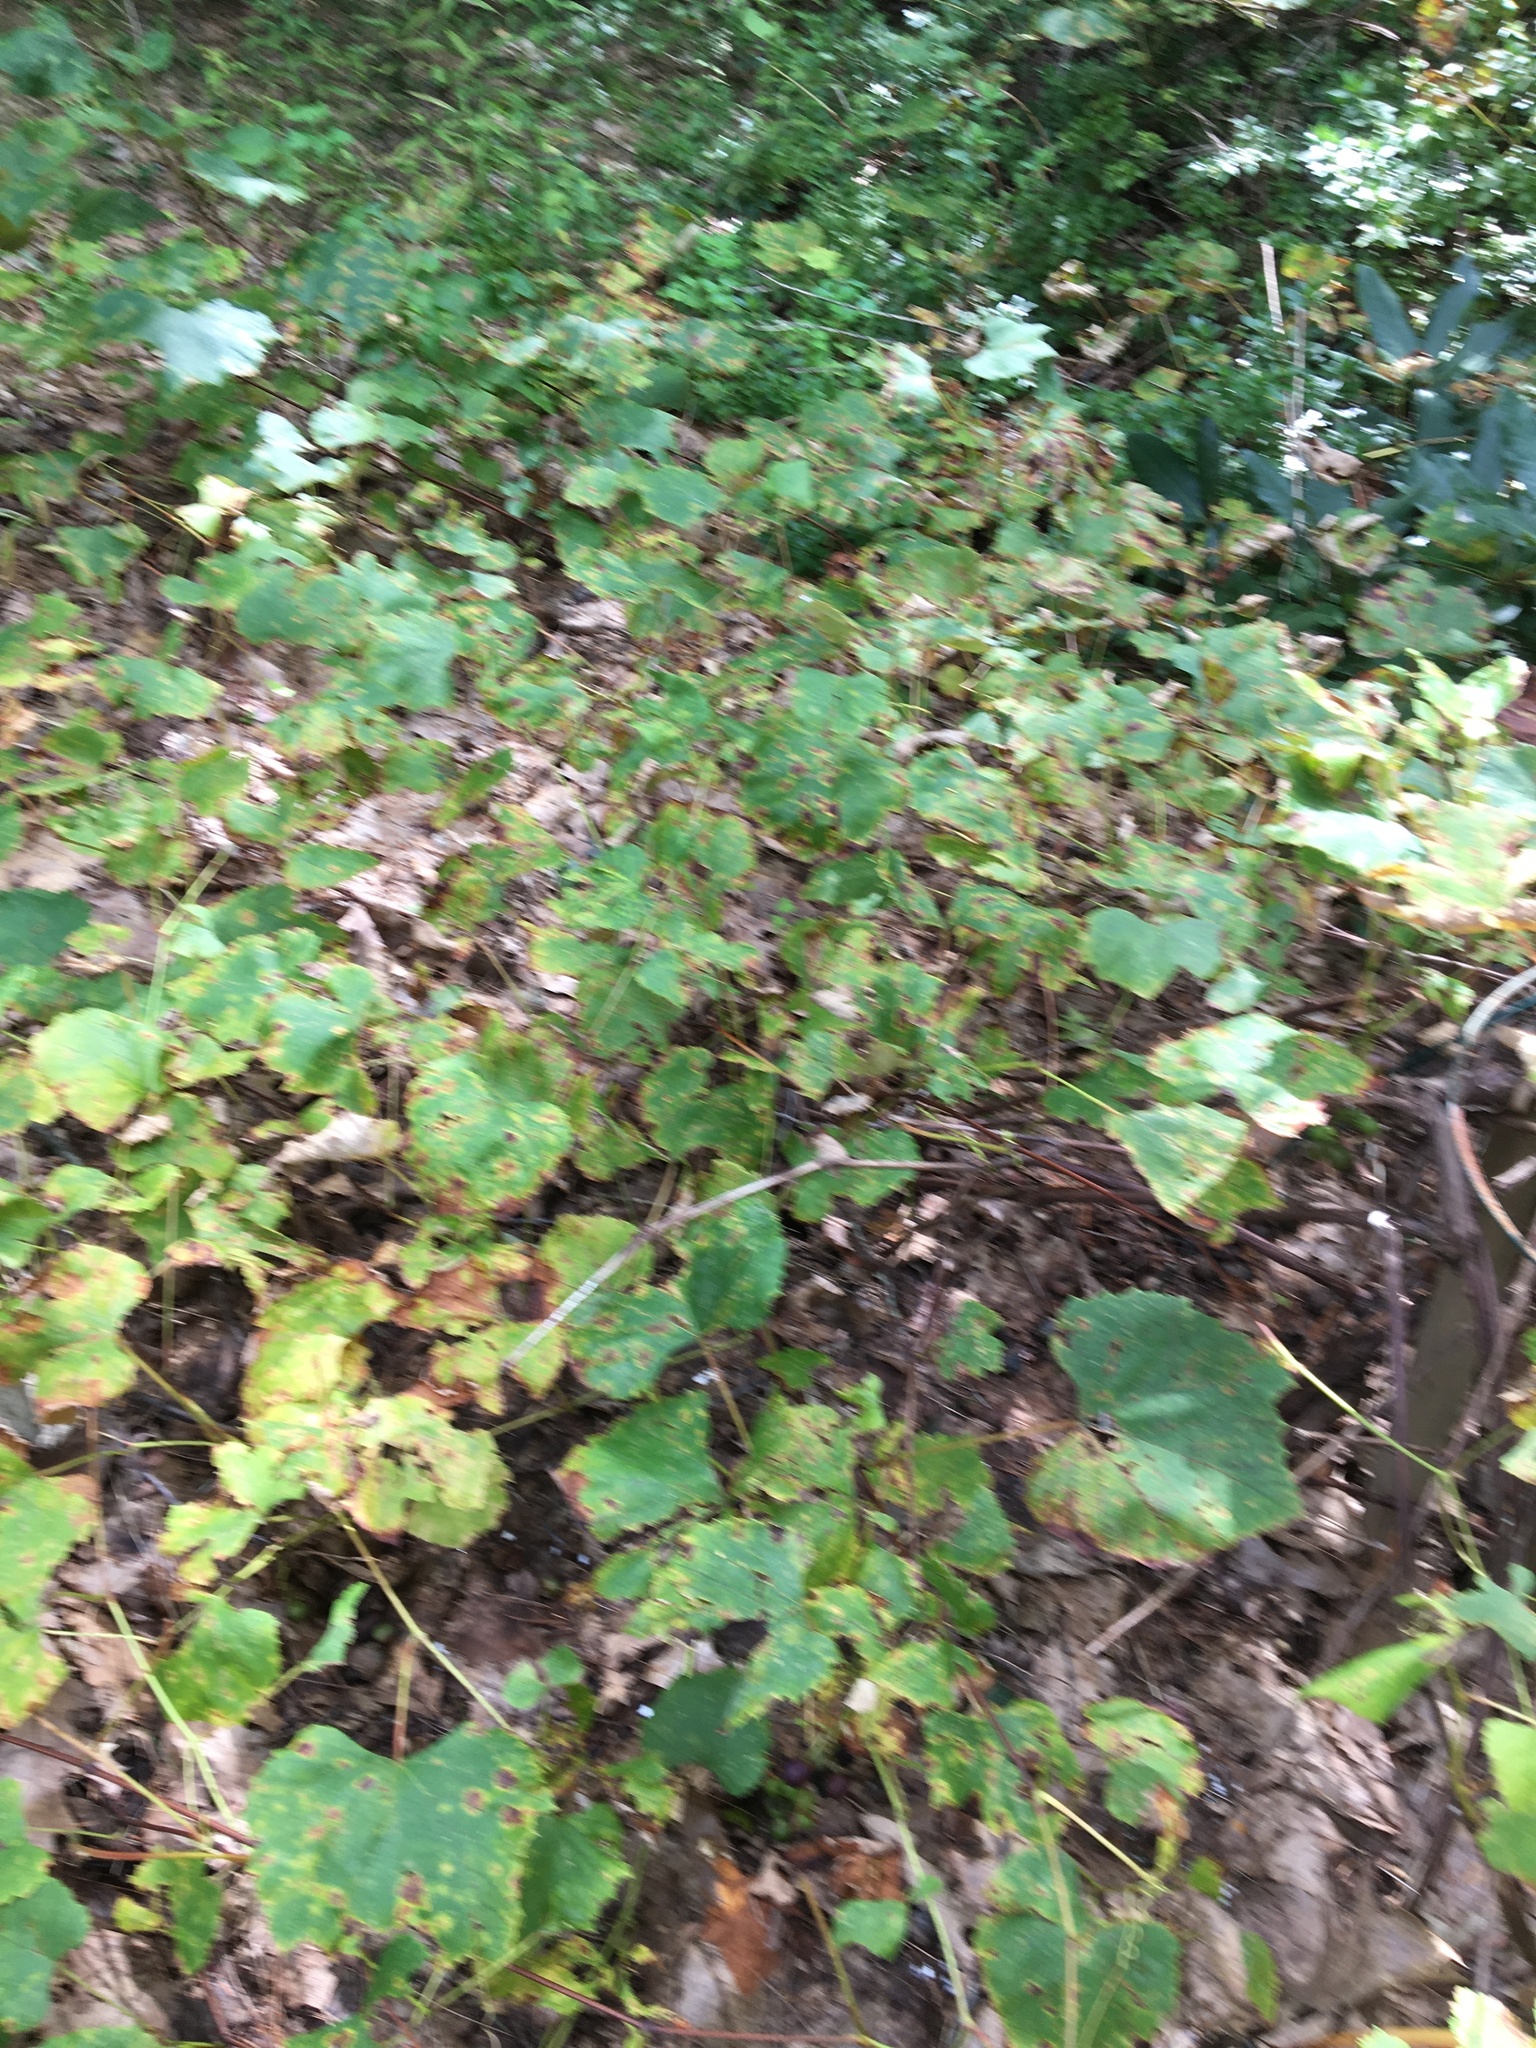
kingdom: Plantae
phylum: Tracheophyta
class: Magnoliopsida
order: Vitales
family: Vitaceae
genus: Vitis
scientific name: Vitis
